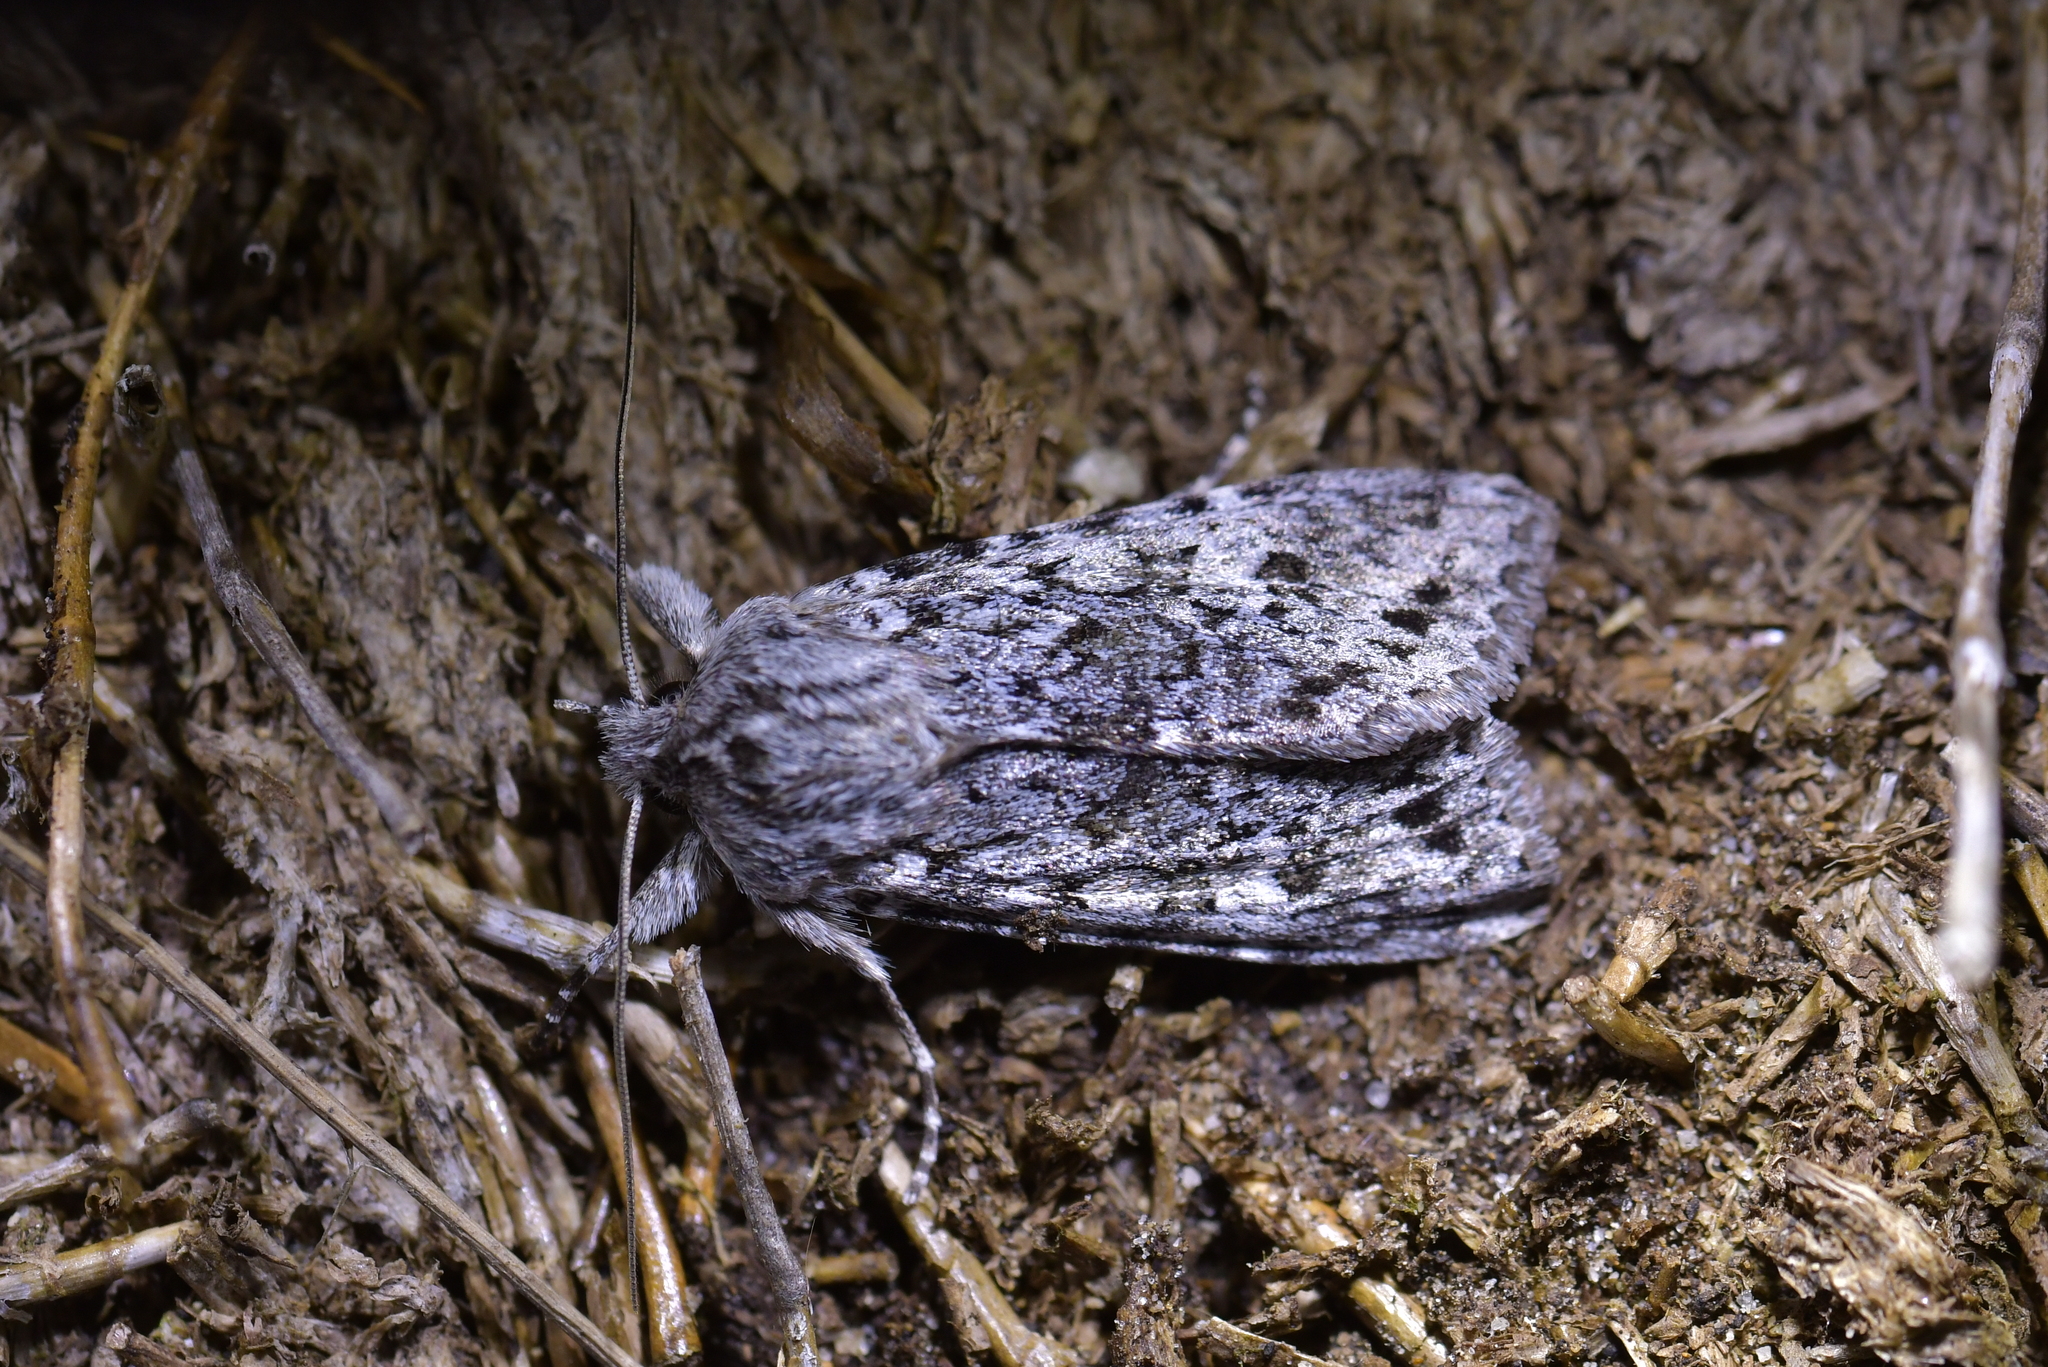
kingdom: Animalia
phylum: Arthropoda
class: Insecta
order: Lepidoptera
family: Noctuidae
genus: Physetica
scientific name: Physetica cucullina
